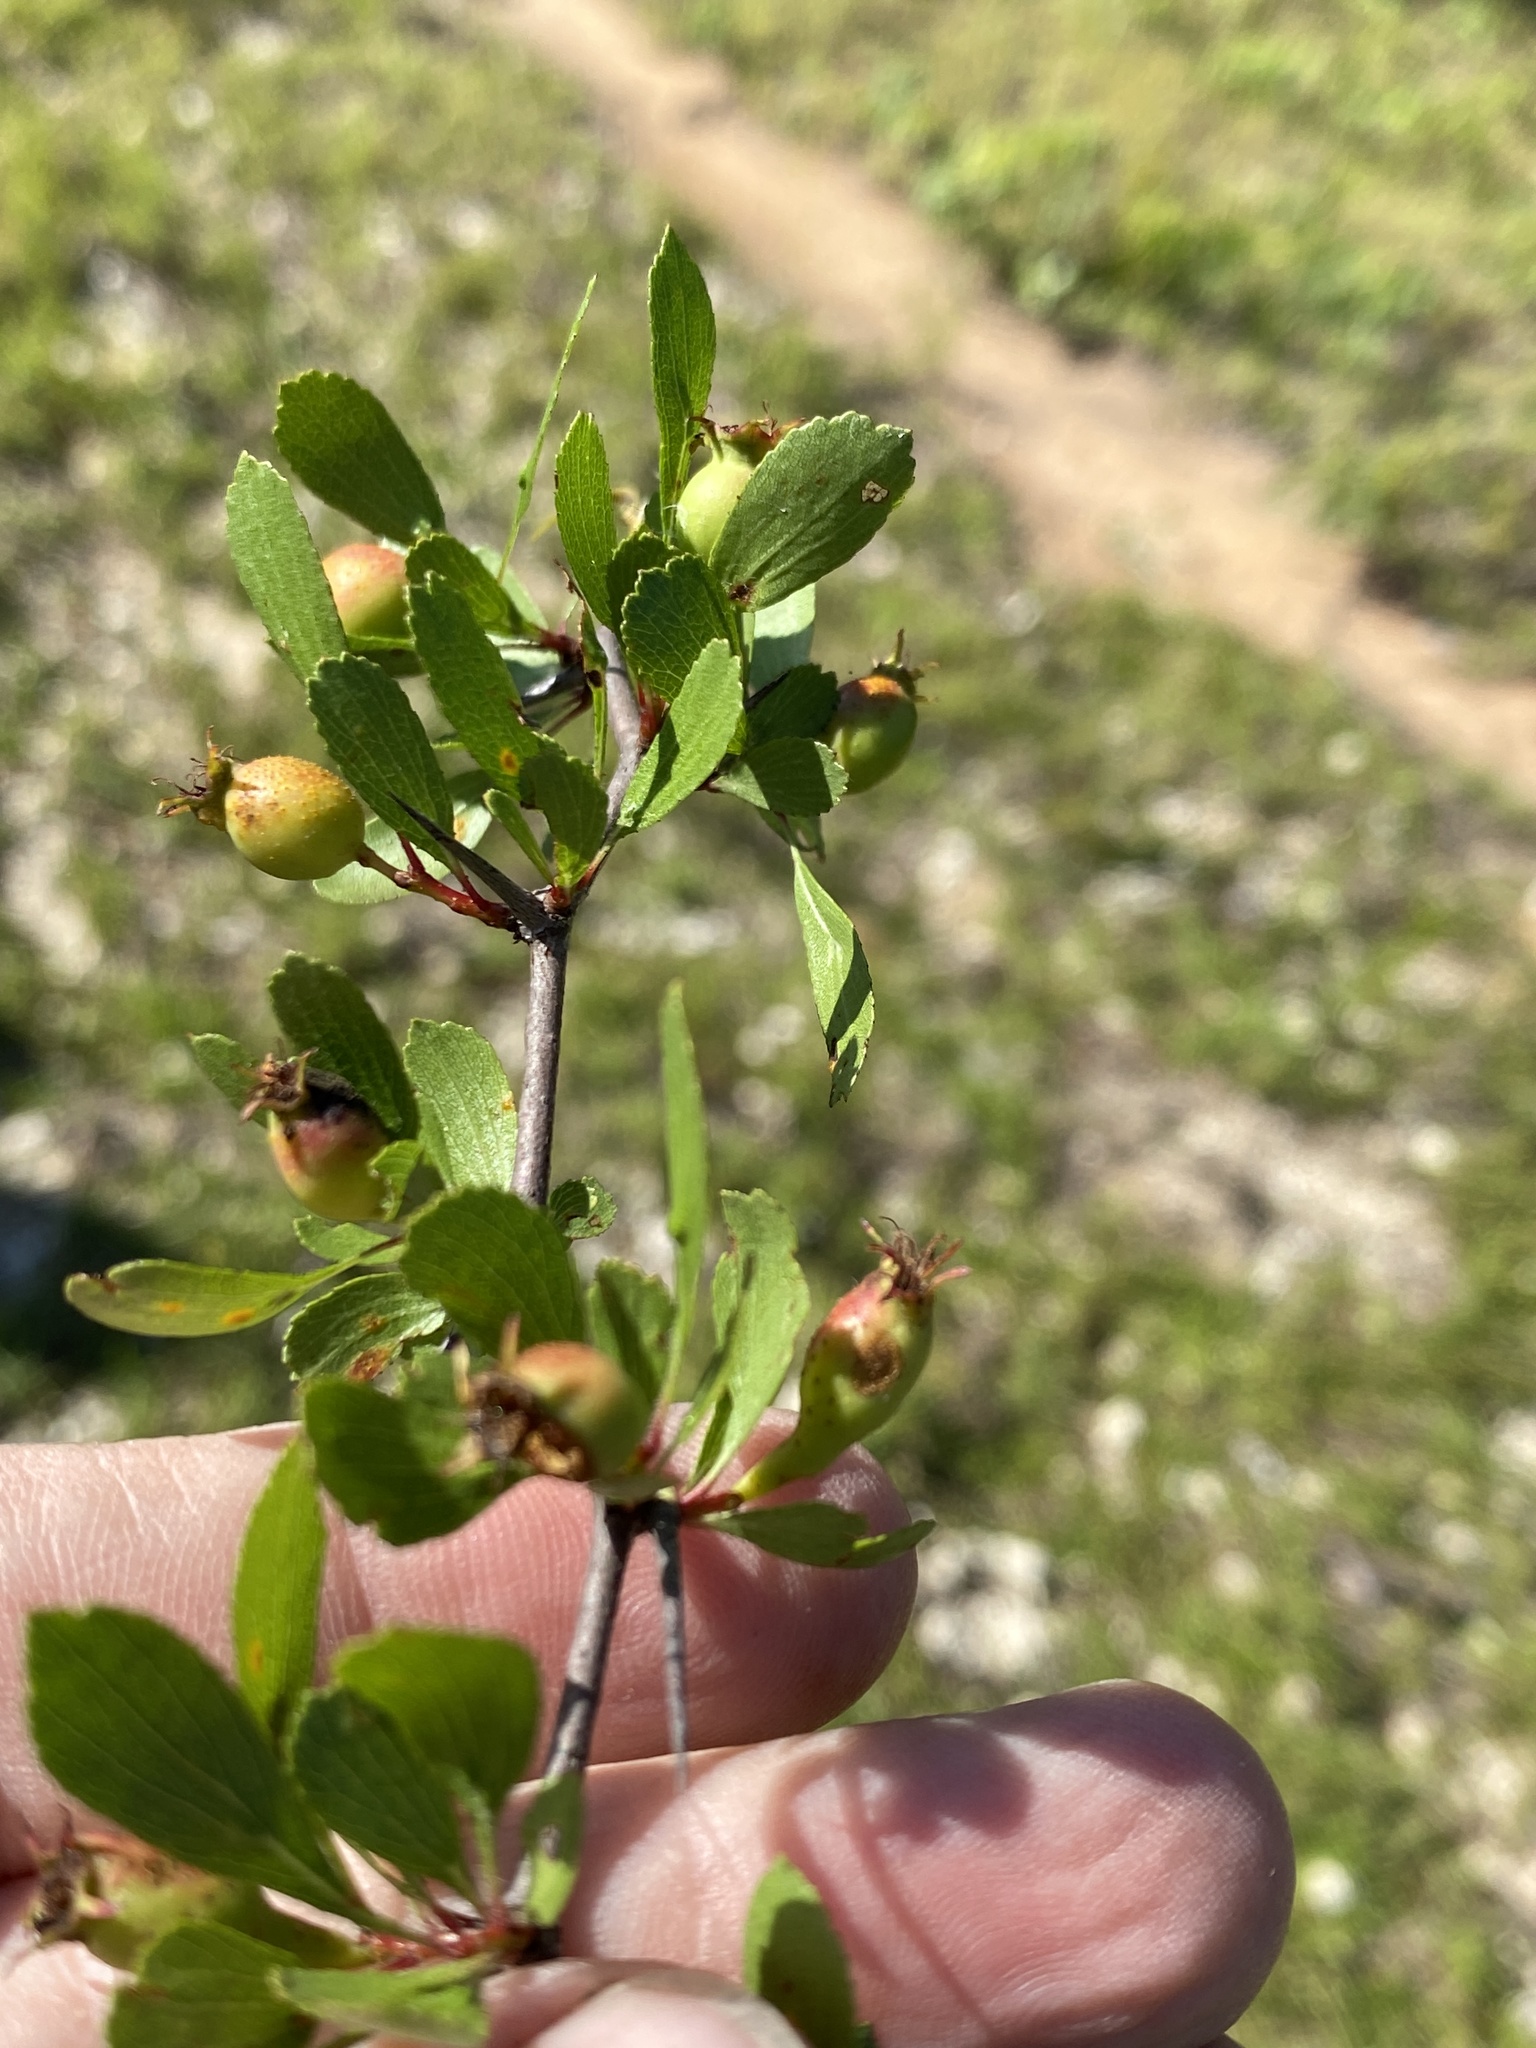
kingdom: Plantae
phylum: Tracheophyta
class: Magnoliopsida
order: Rosales
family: Rosaceae
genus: Crataegus
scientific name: Crataegus lacrimata
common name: Weeping hawthorn
